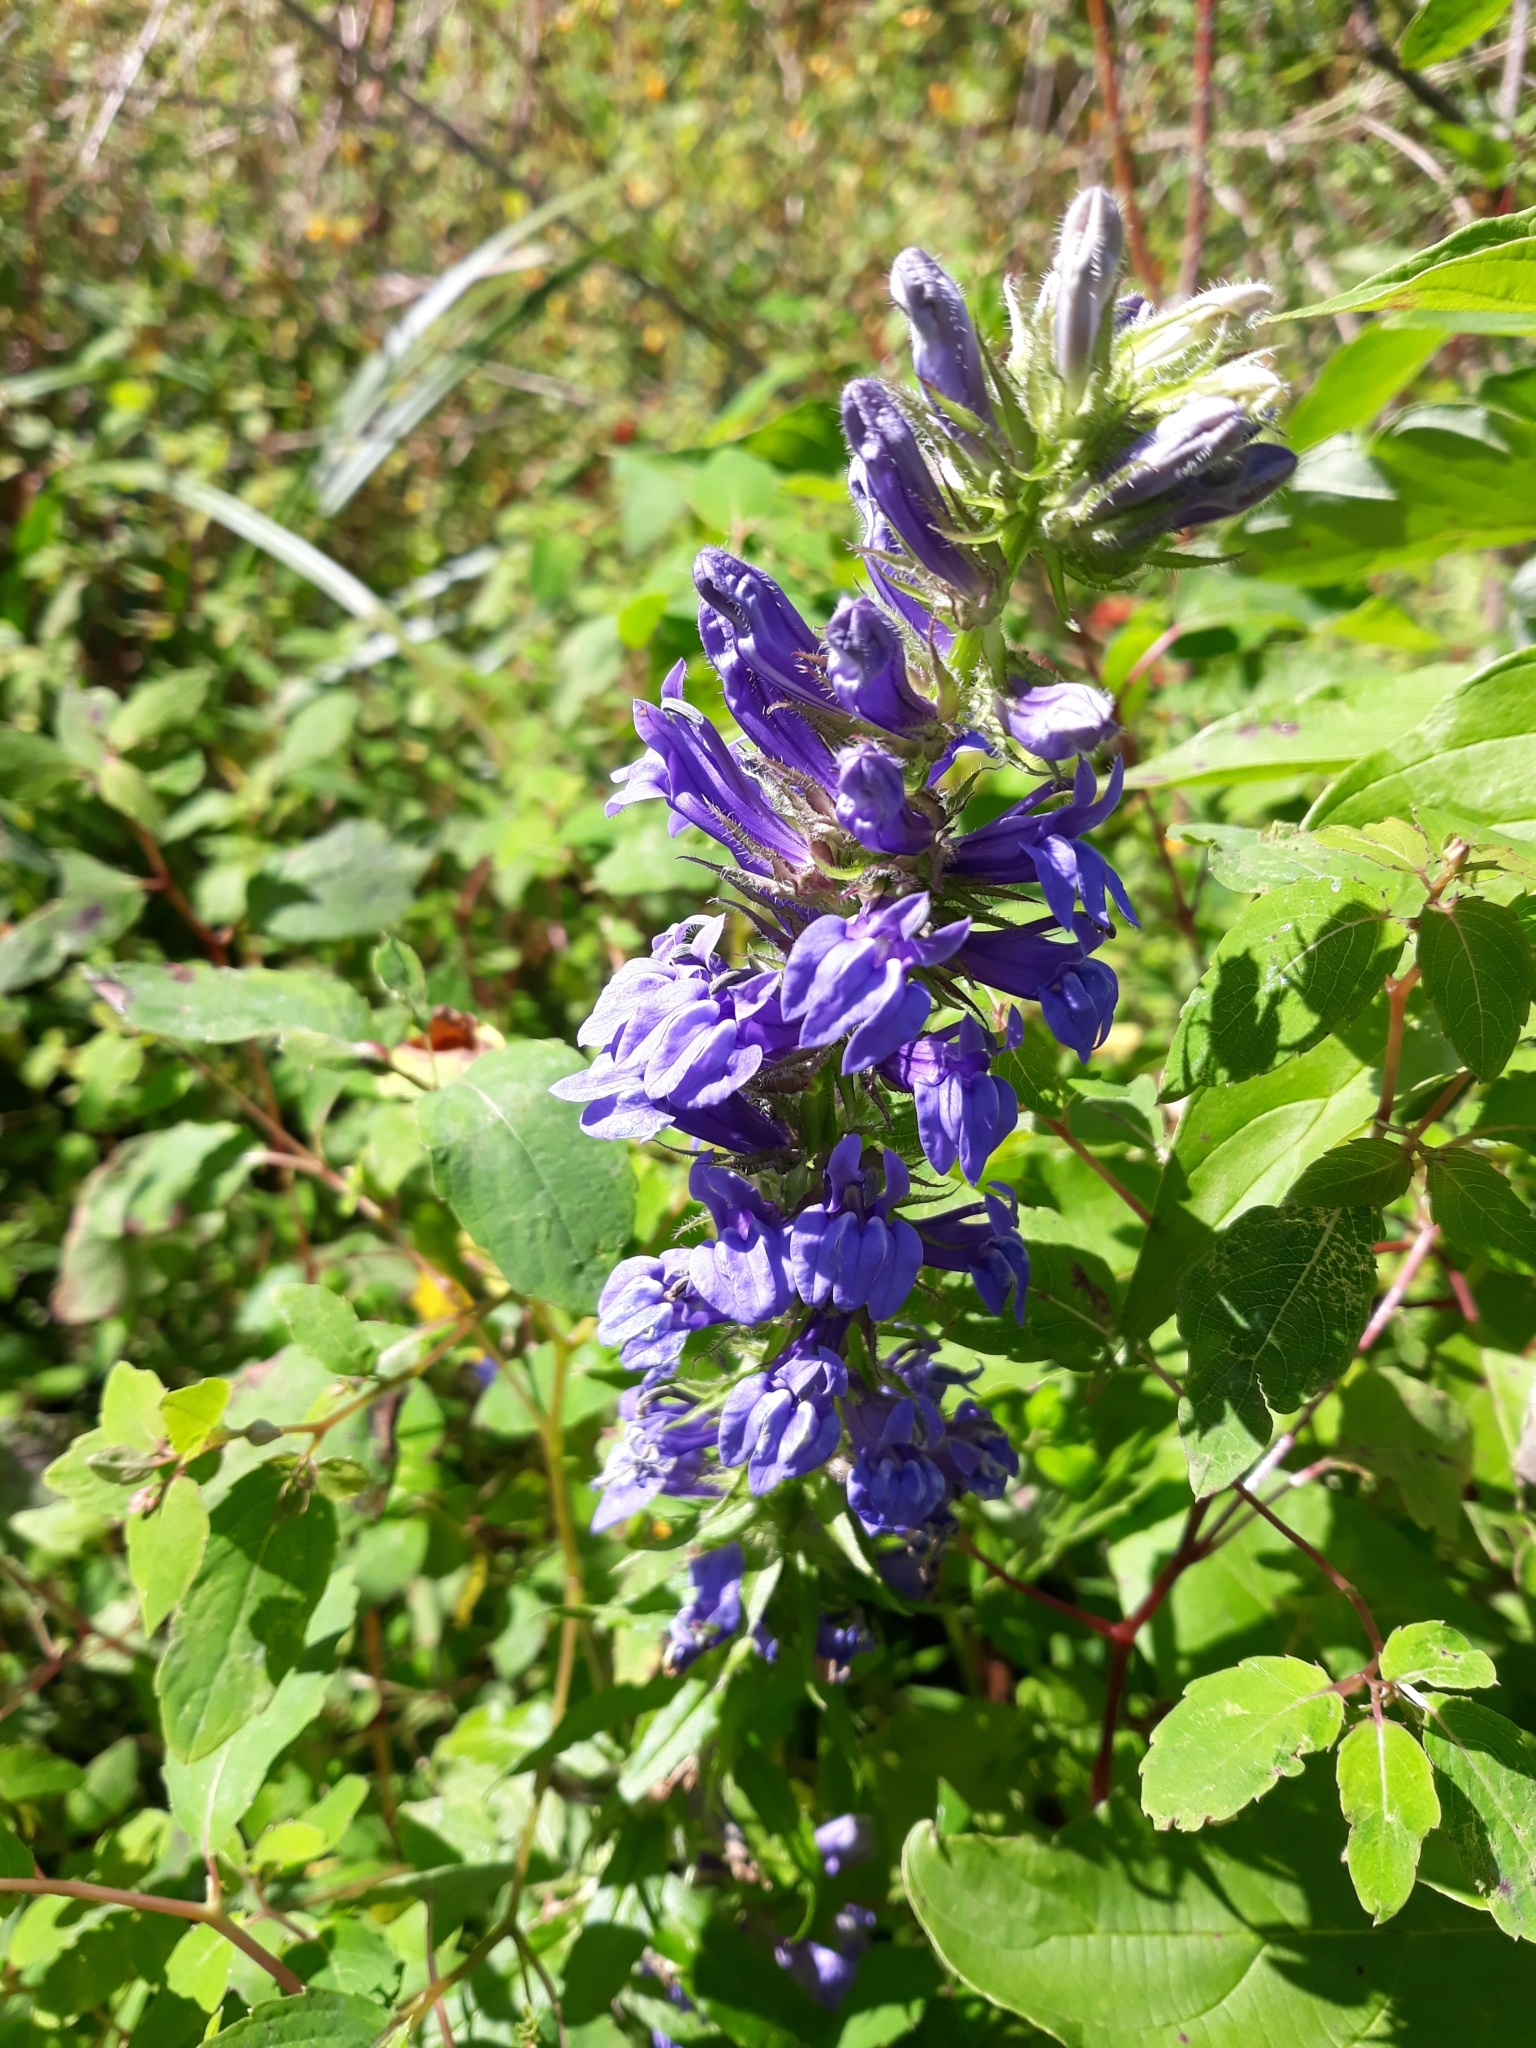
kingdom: Plantae
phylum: Tracheophyta
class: Magnoliopsida
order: Asterales
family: Campanulaceae
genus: Lobelia
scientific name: Lobelia siphilitica
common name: Great lobelia
